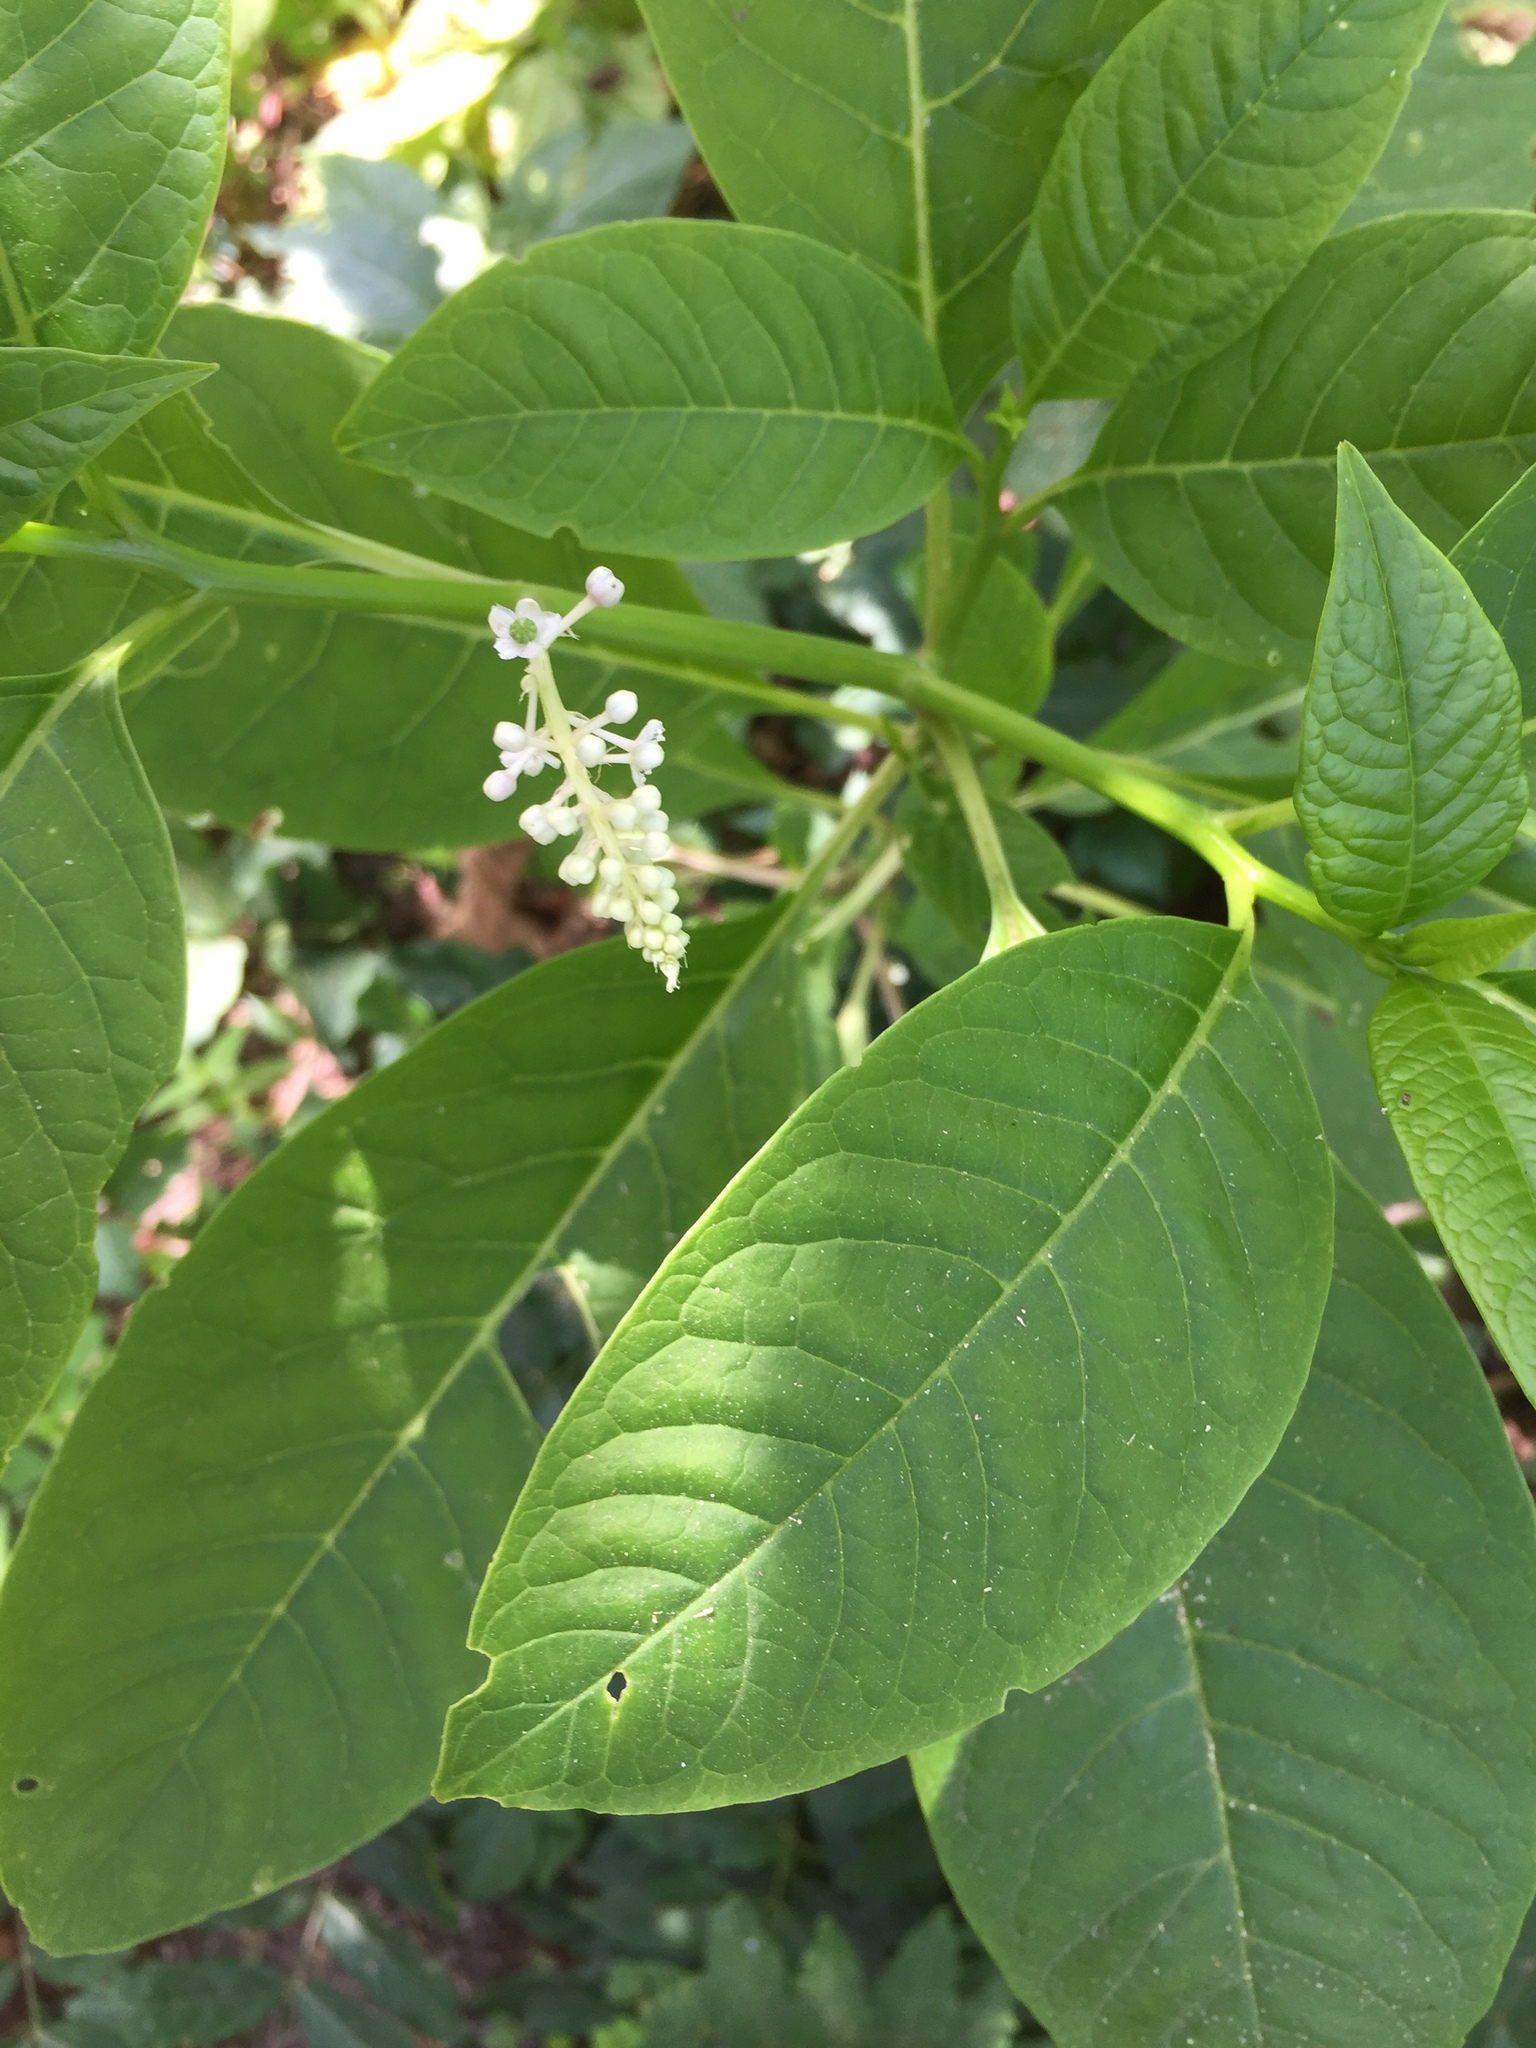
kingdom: Plantae
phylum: Tracheophyta
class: Magnoliopsida
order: Caryophyllales
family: Phytolaccaceae
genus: Phytolacca
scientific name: Phytolacca americana
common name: American pokeweed
